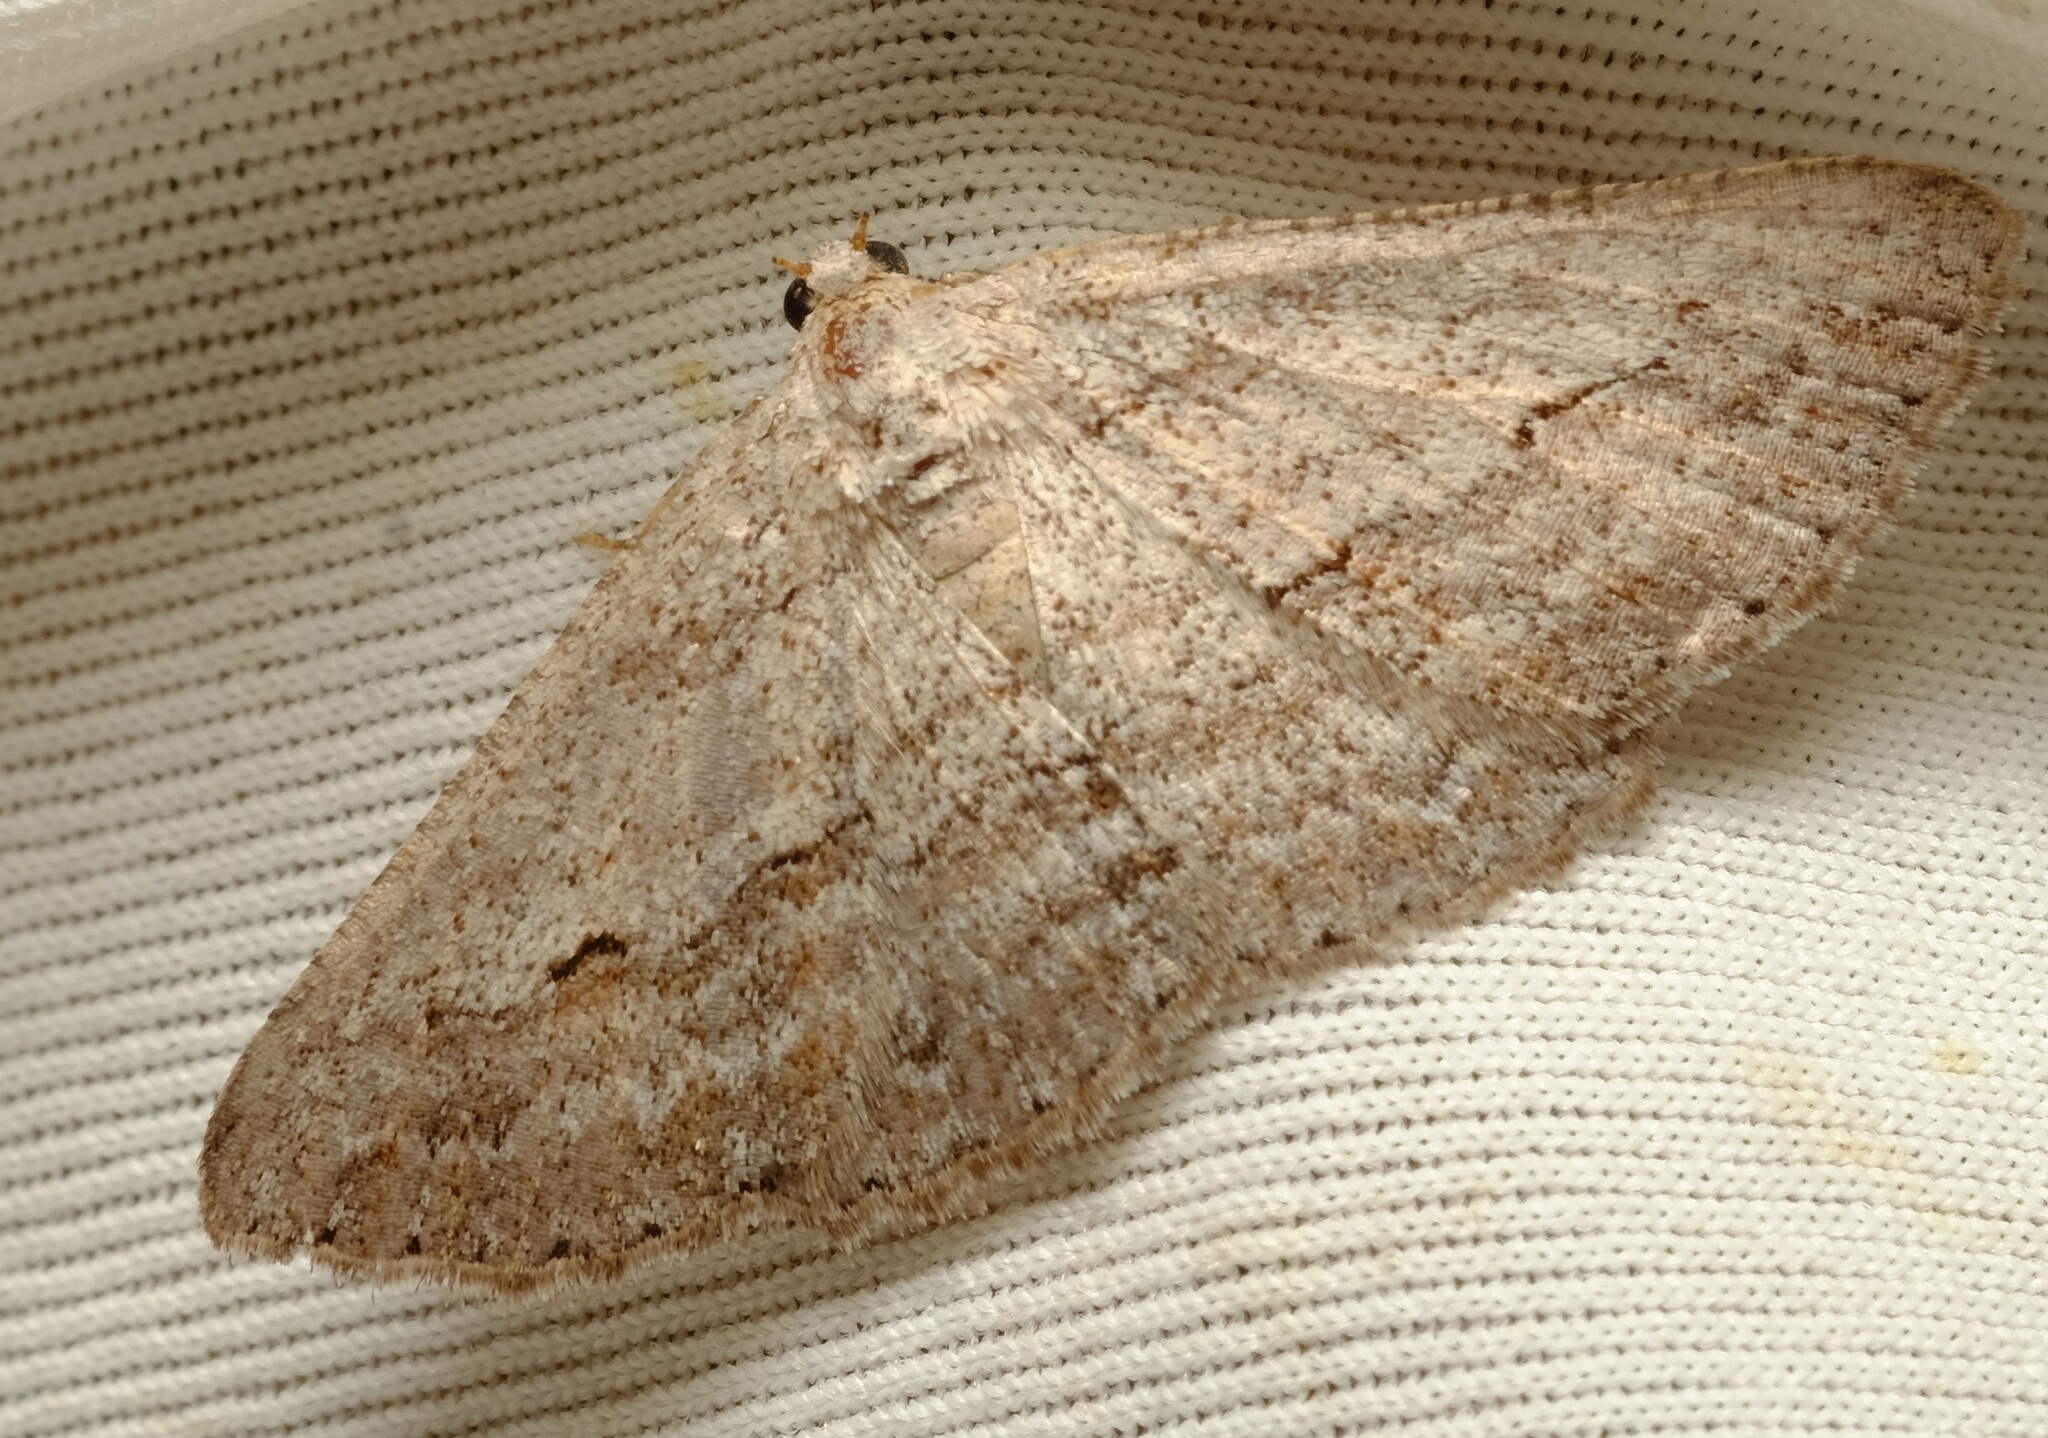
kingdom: Animalia
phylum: Arthropoda
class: Insecta
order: Lepidoptera
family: Geometridae
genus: Syneora
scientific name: Syneora mundifera
